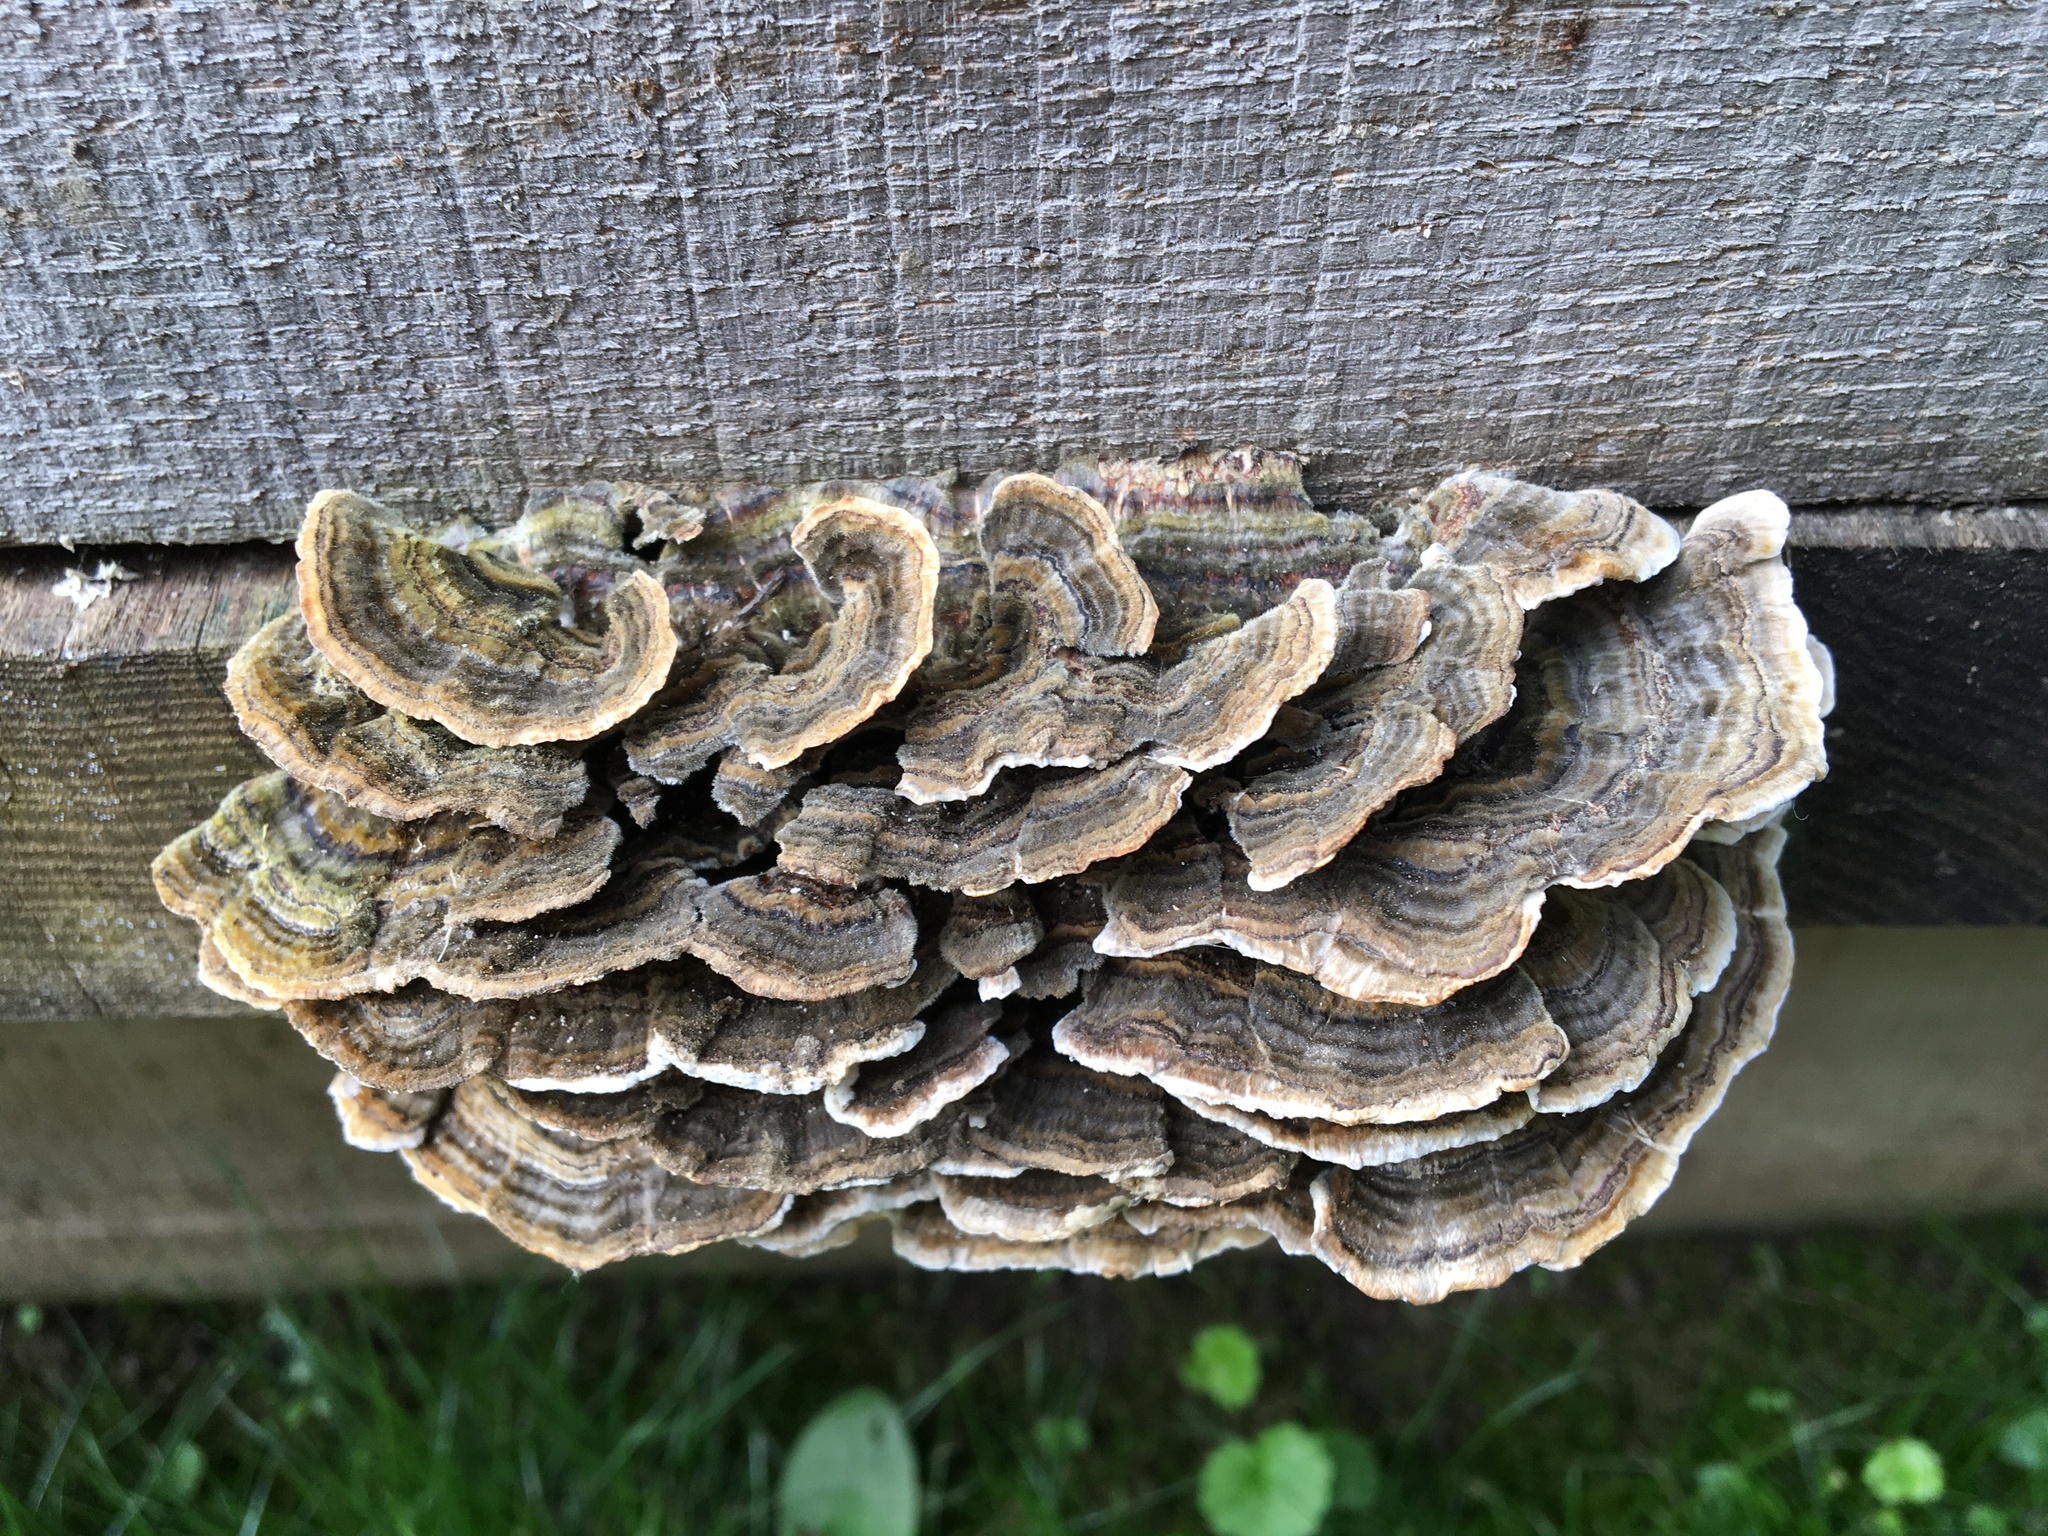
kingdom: Fungi
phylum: Basidiomycota
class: Agaricomycetes
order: Polyporales
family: Polyporaceae
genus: Trametes
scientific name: Trametes versicolor
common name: Turkeytail
